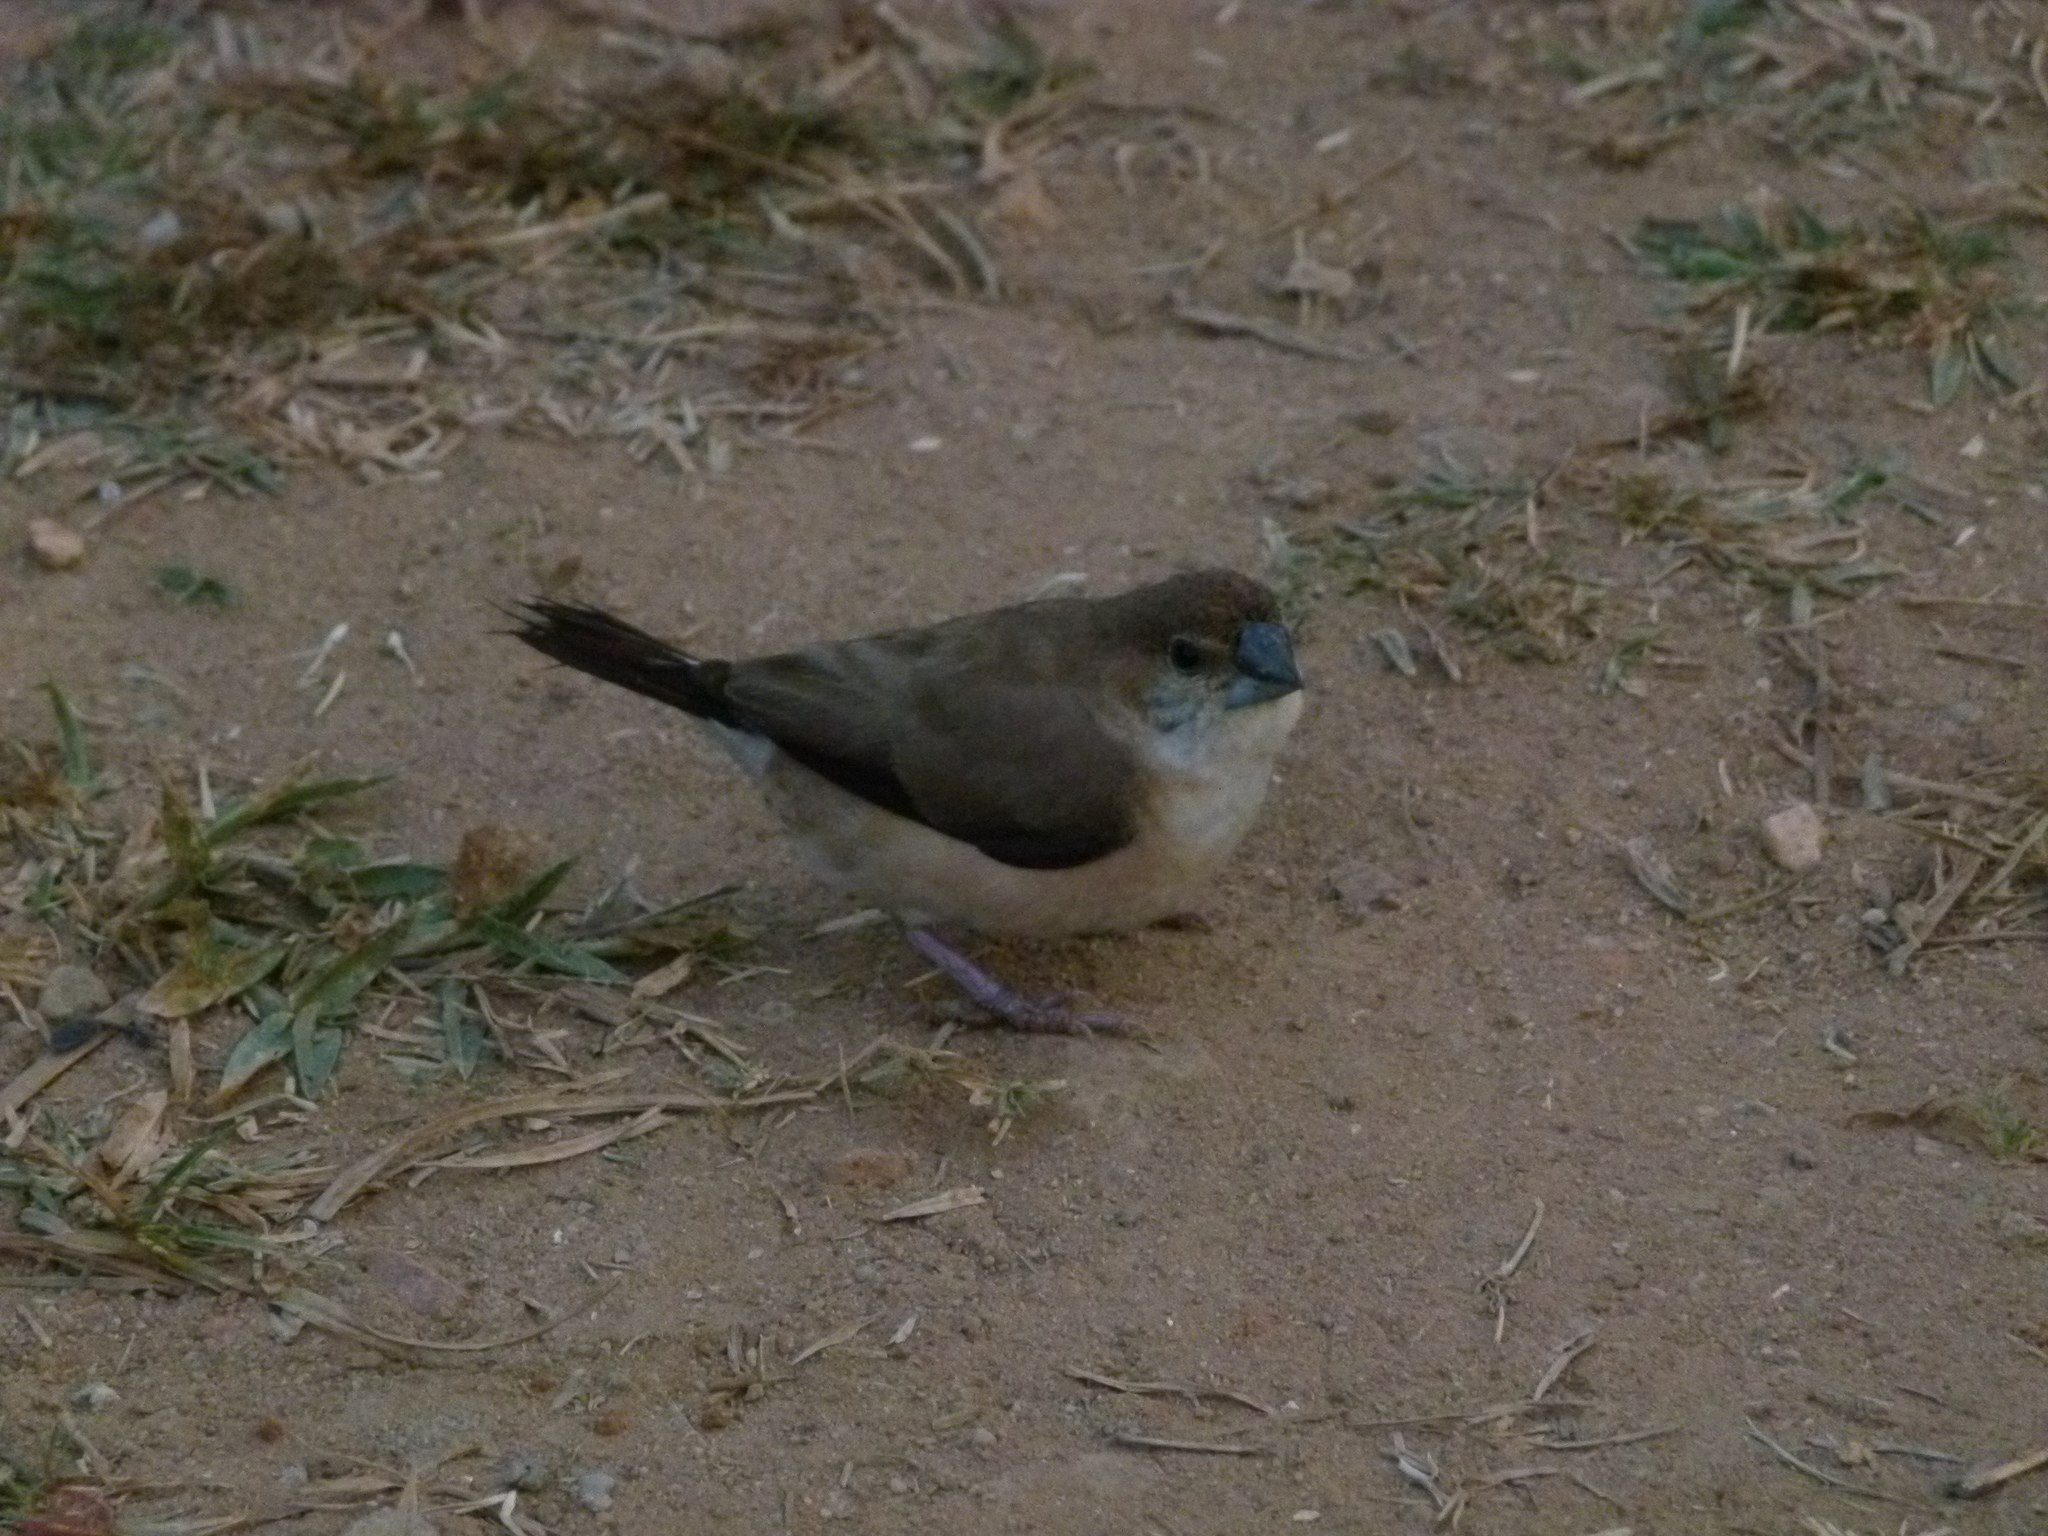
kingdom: Animalia
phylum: Chordata
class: Aves
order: Passeriformes
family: Estrildidae
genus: Euodice
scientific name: Euodice malabarica
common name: Indian silverbill
